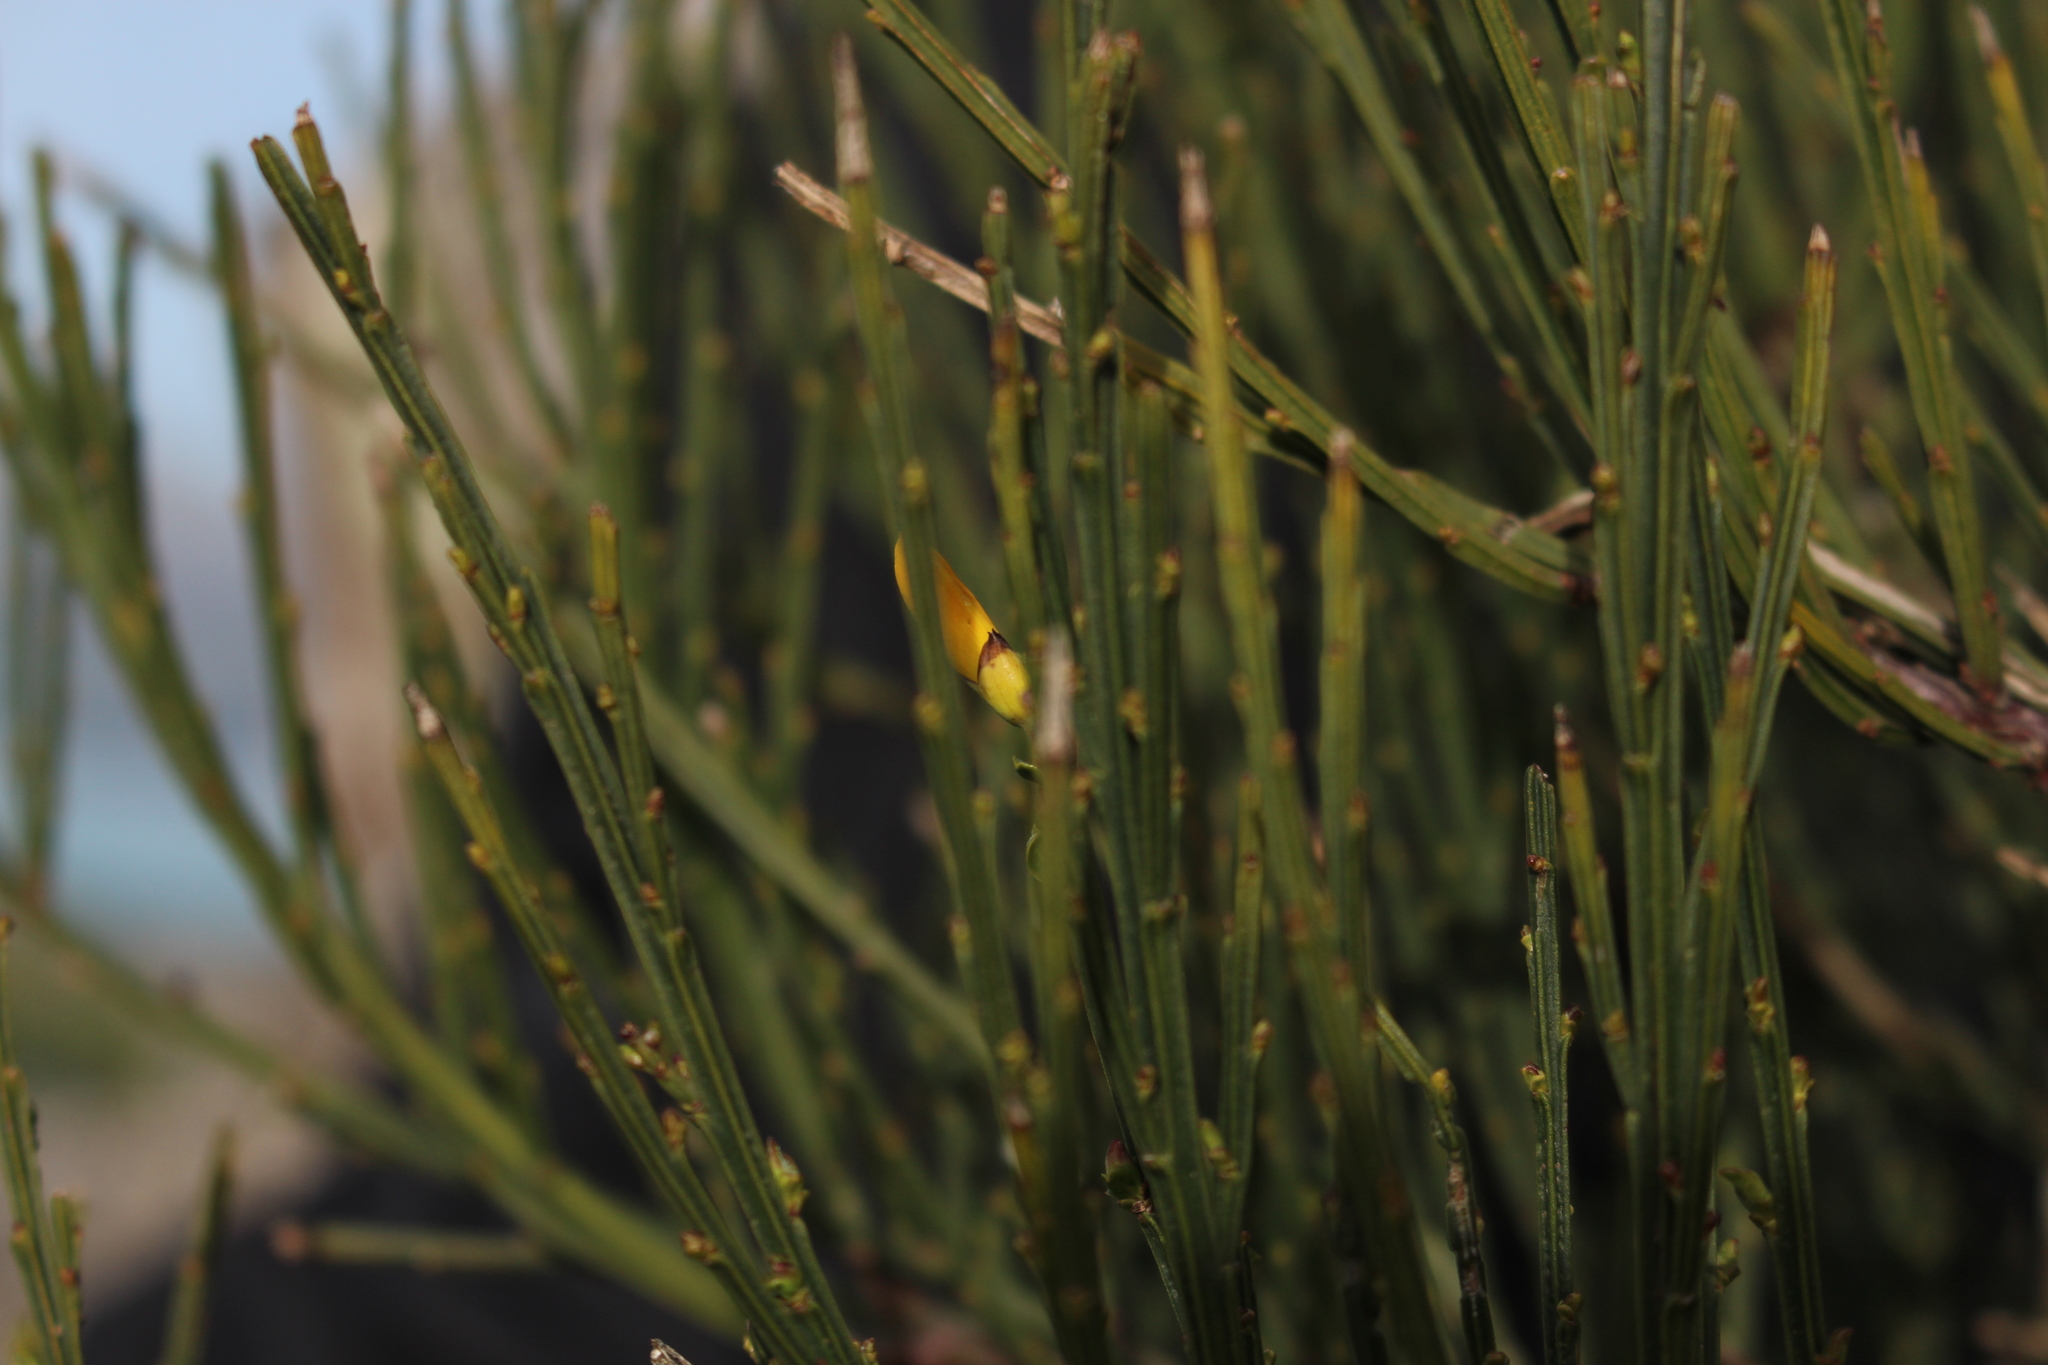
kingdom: Plantae
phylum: Tracheophyta
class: Magnoliopsida
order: Fabales
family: Fabaceae
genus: Cytisus
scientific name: Cytisus scoparius
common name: Scotch broom
